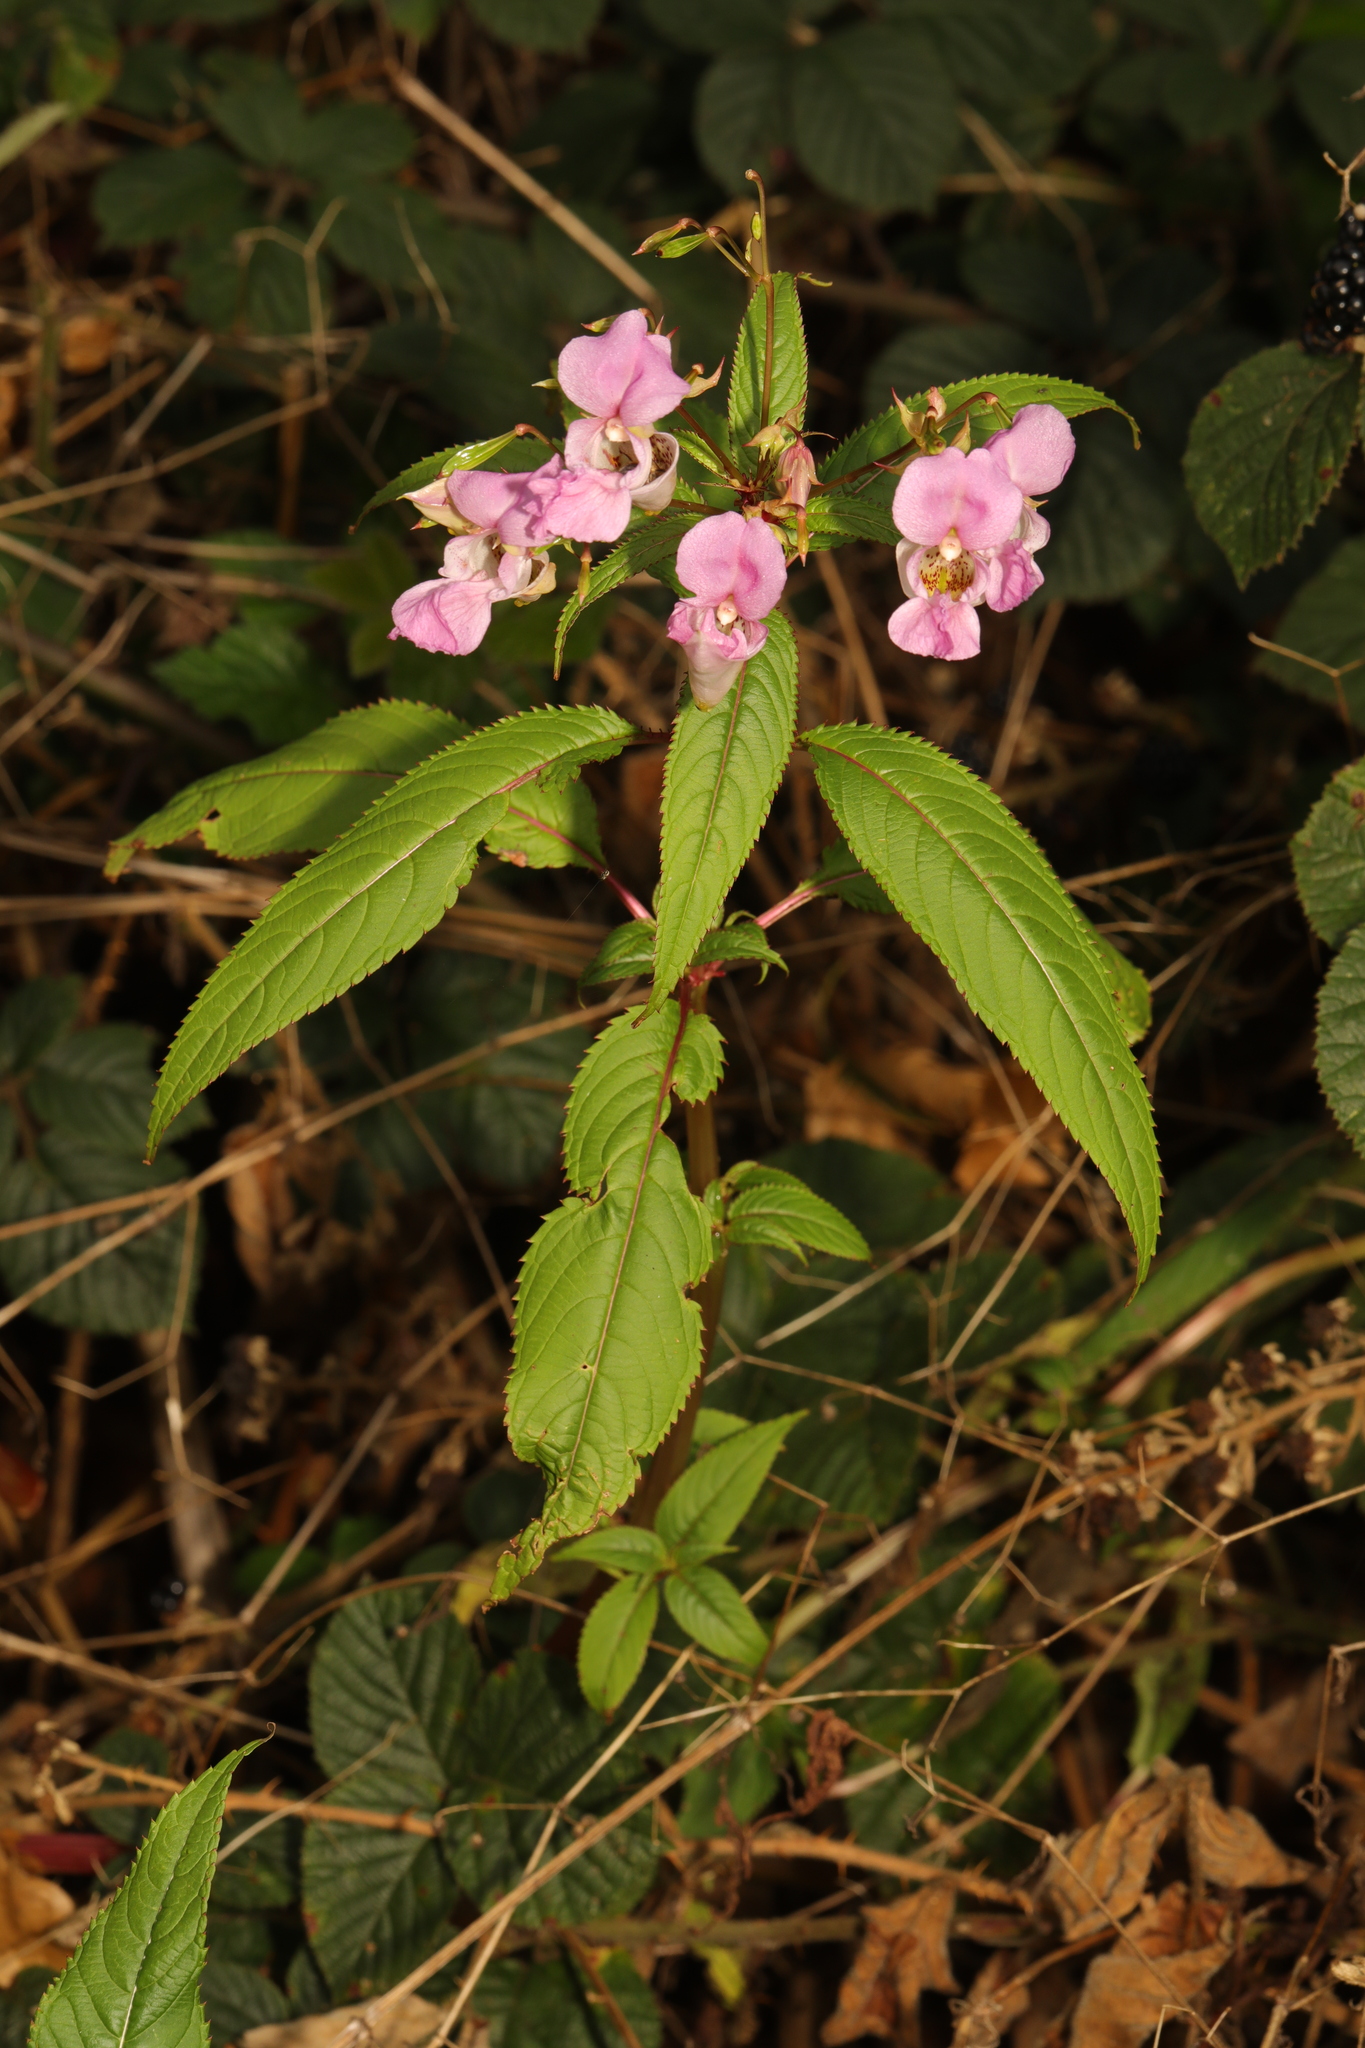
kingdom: Plantae
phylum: Tracheophyta
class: Magnoliopsida
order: Ericales
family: Balsaminaceae
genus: Impatiens
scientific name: Impatiens glandulifera
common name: Himalayan balsam
